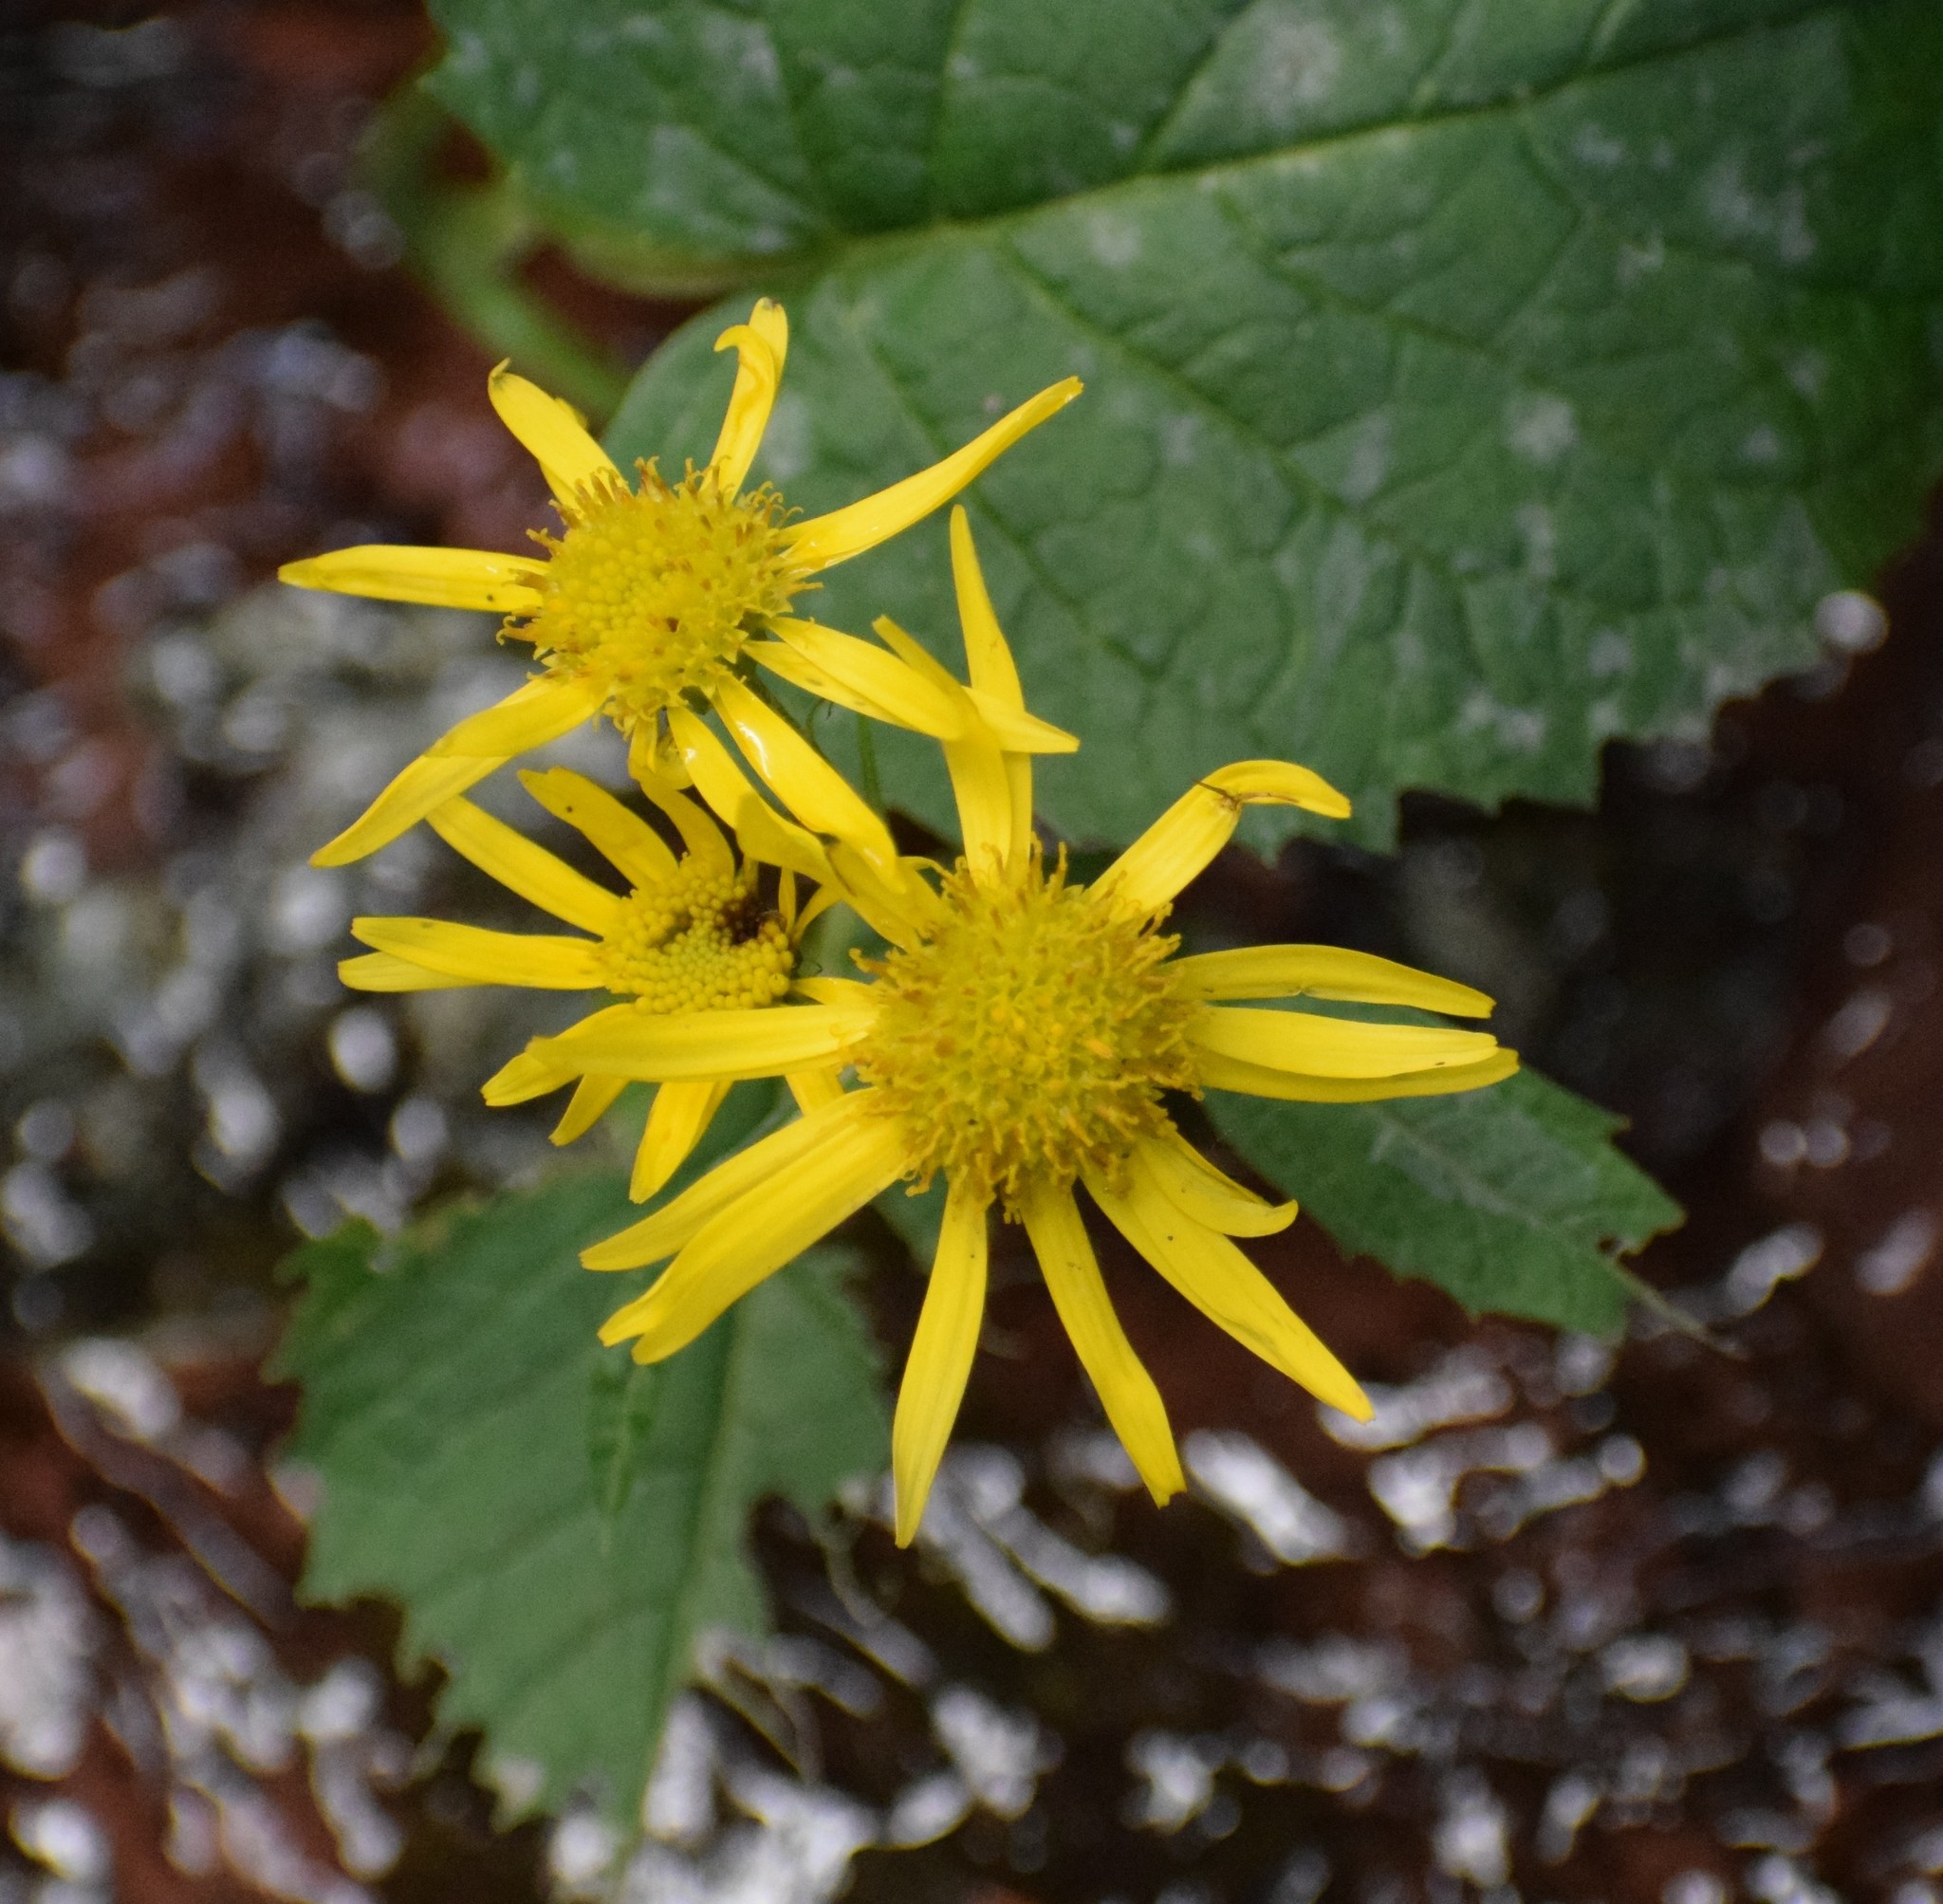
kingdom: Plantae
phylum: Tracheophyta
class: Magnoliopsida
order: Asterales
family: Asteraceae
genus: Jacobaea
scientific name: Jacobaea alpina
